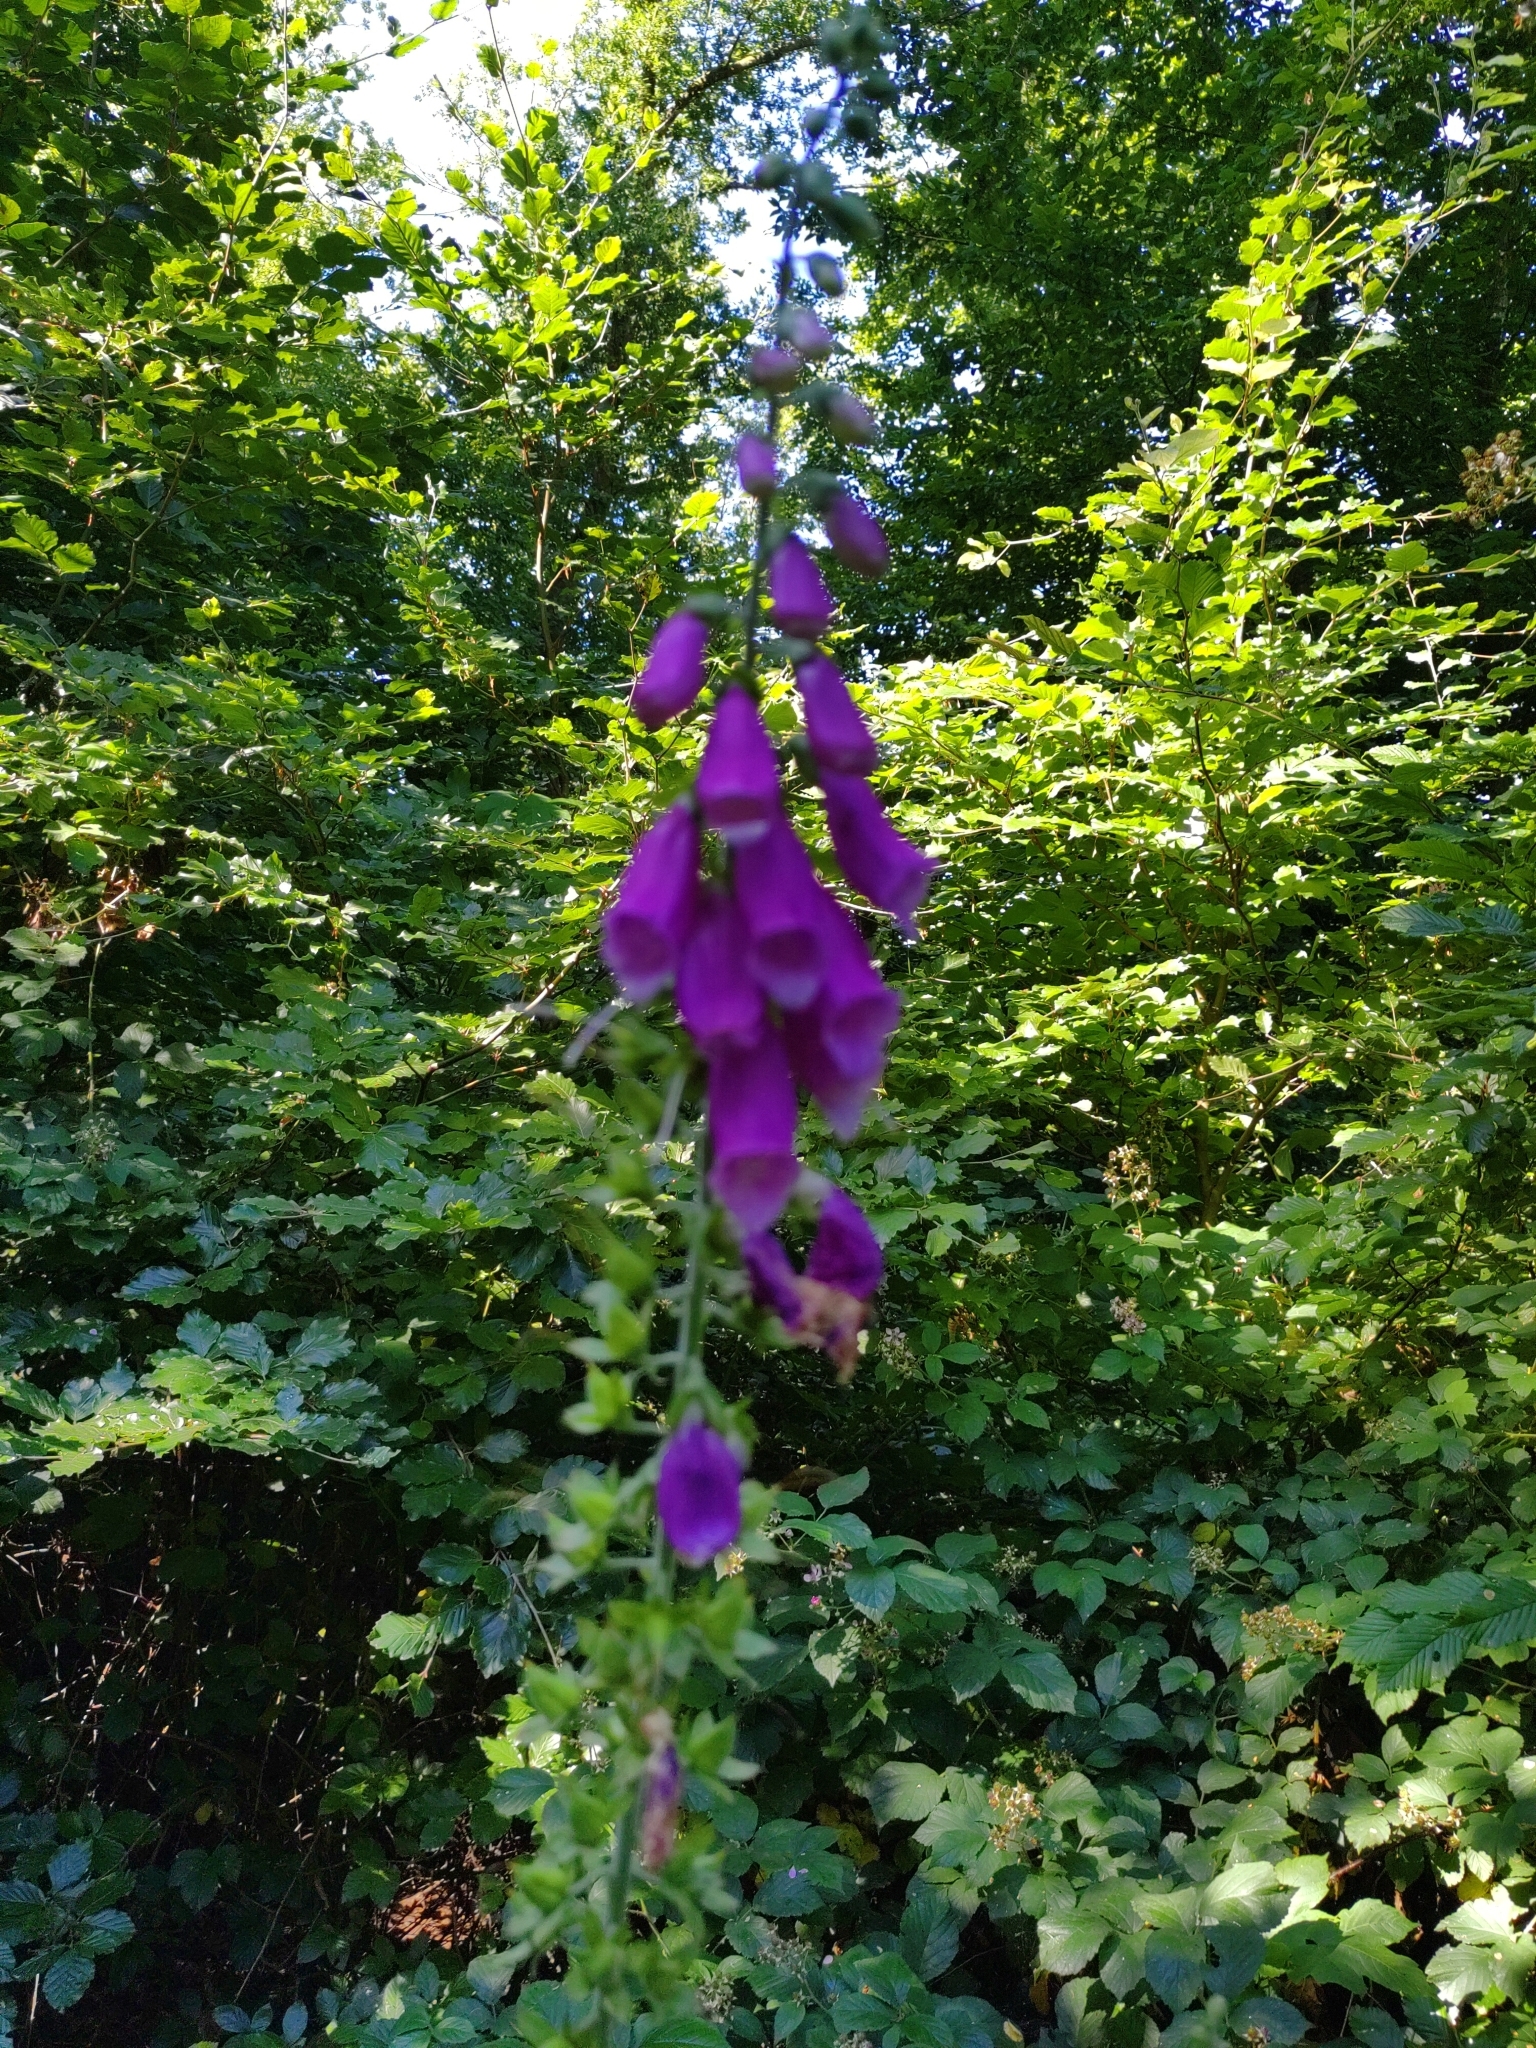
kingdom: Plantae
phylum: Tracheophyta
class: Magnoliopsida
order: Lamiales
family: Plantaginaceae
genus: Digitalis
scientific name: Digitalis purpurea
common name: Foxglove
